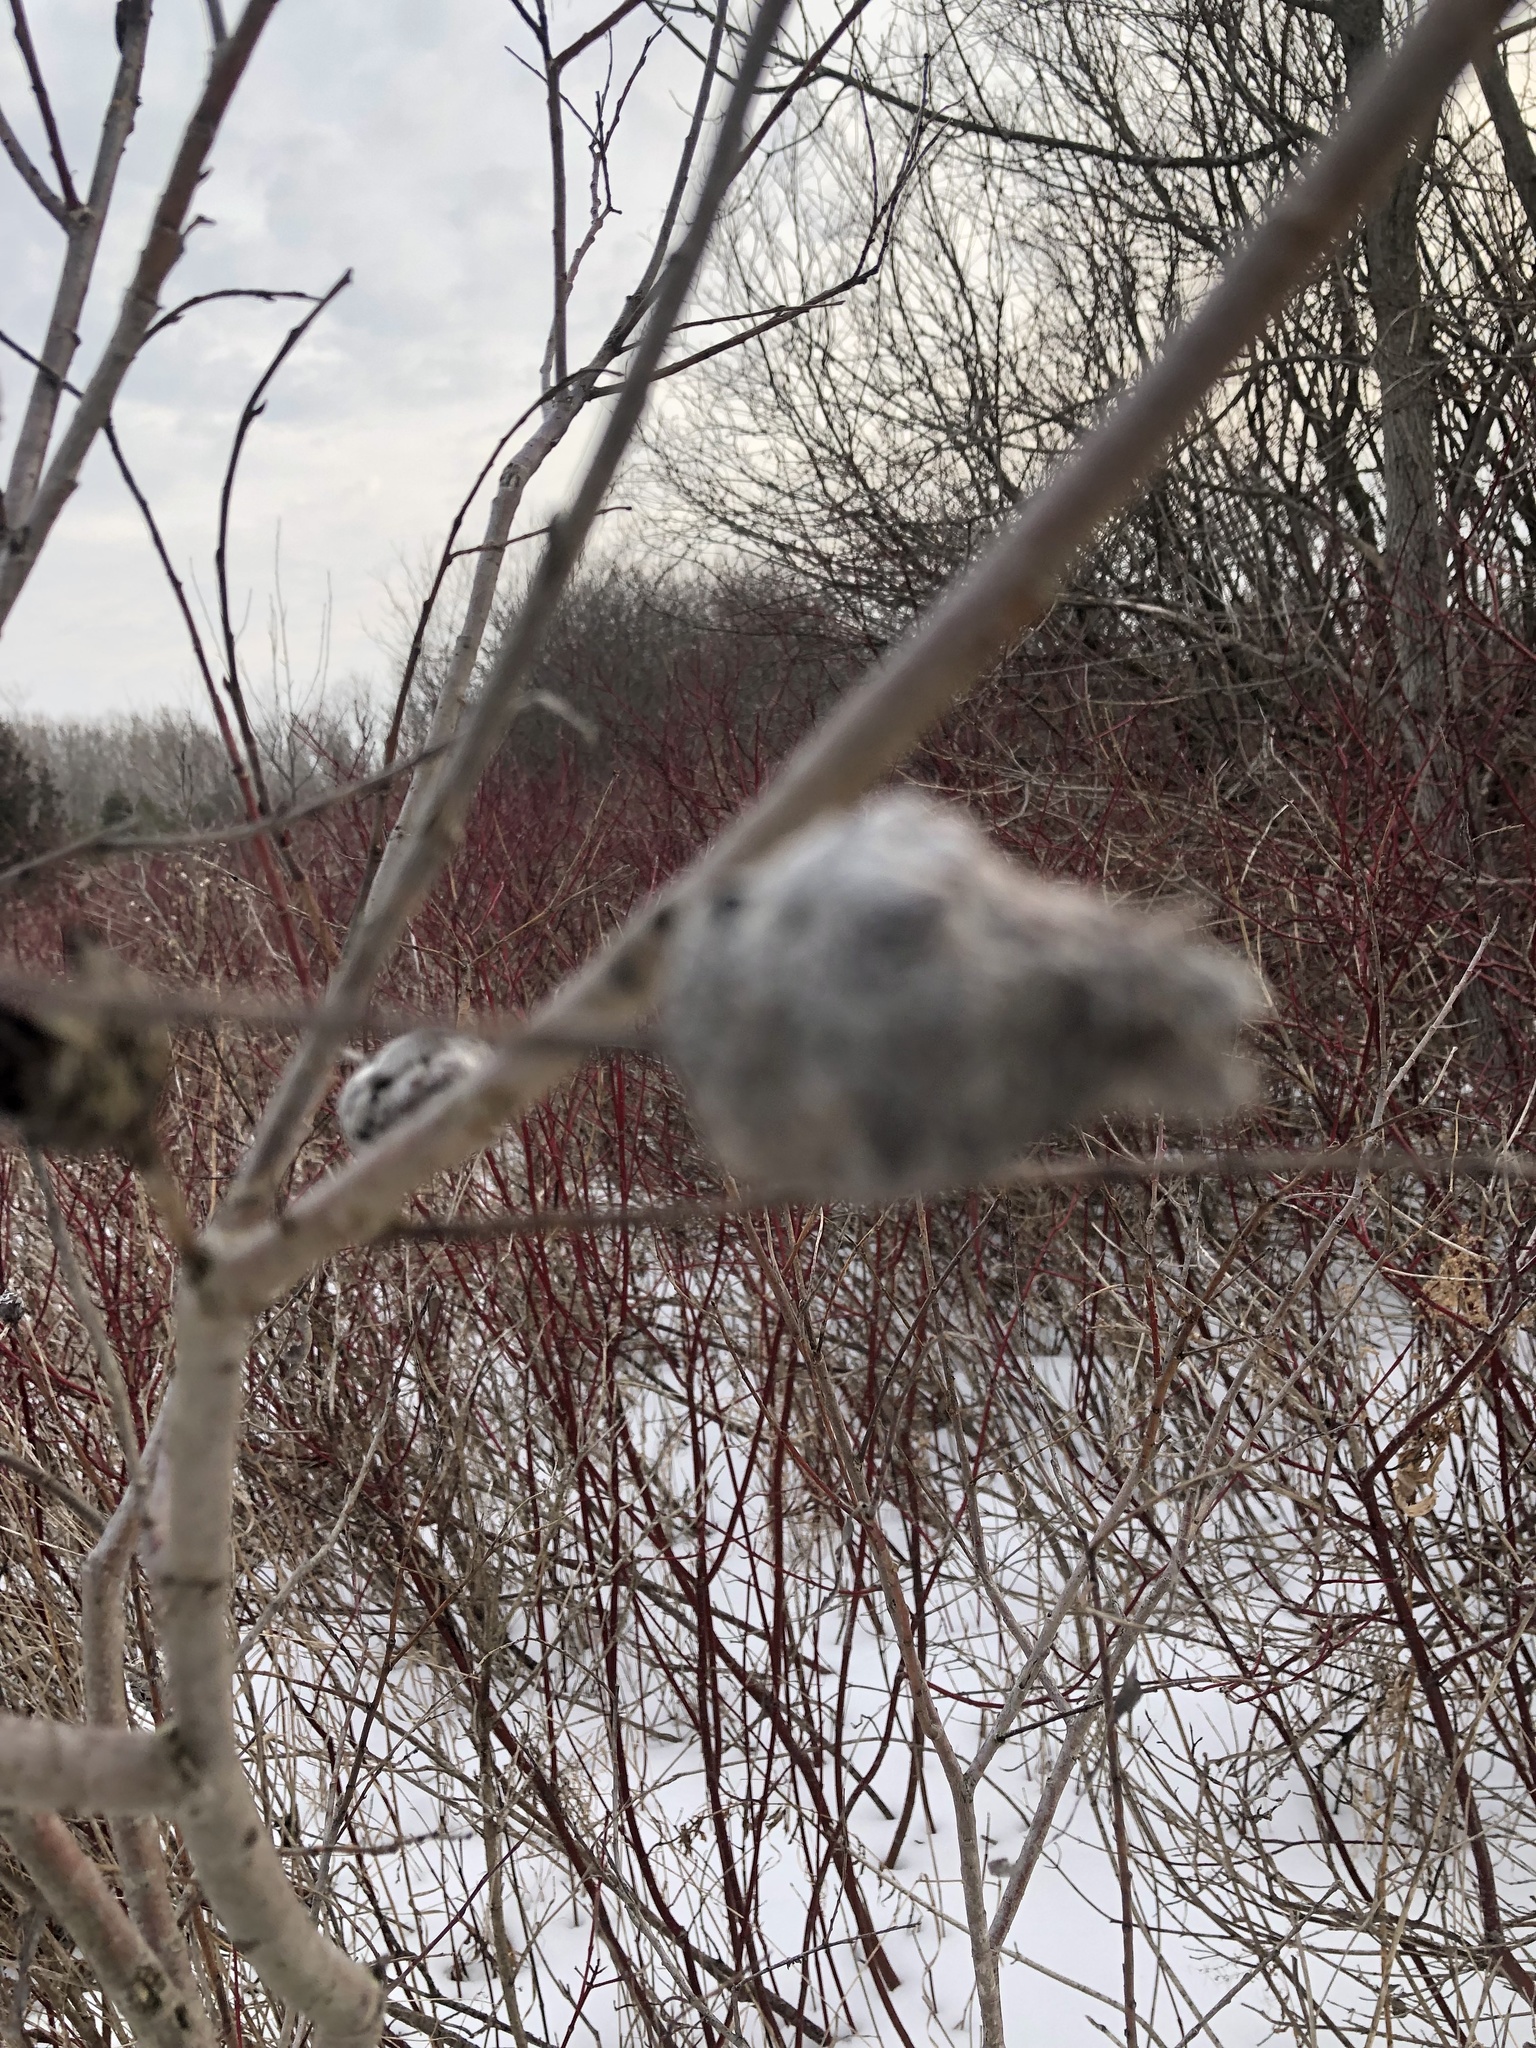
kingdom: Animalia
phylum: Arthropoda
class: Insecta
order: Diptera
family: Cecidomyiidae
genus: Rabdophaga
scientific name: Rabdophaga strobiloides
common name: Willow pinecone gall midge
